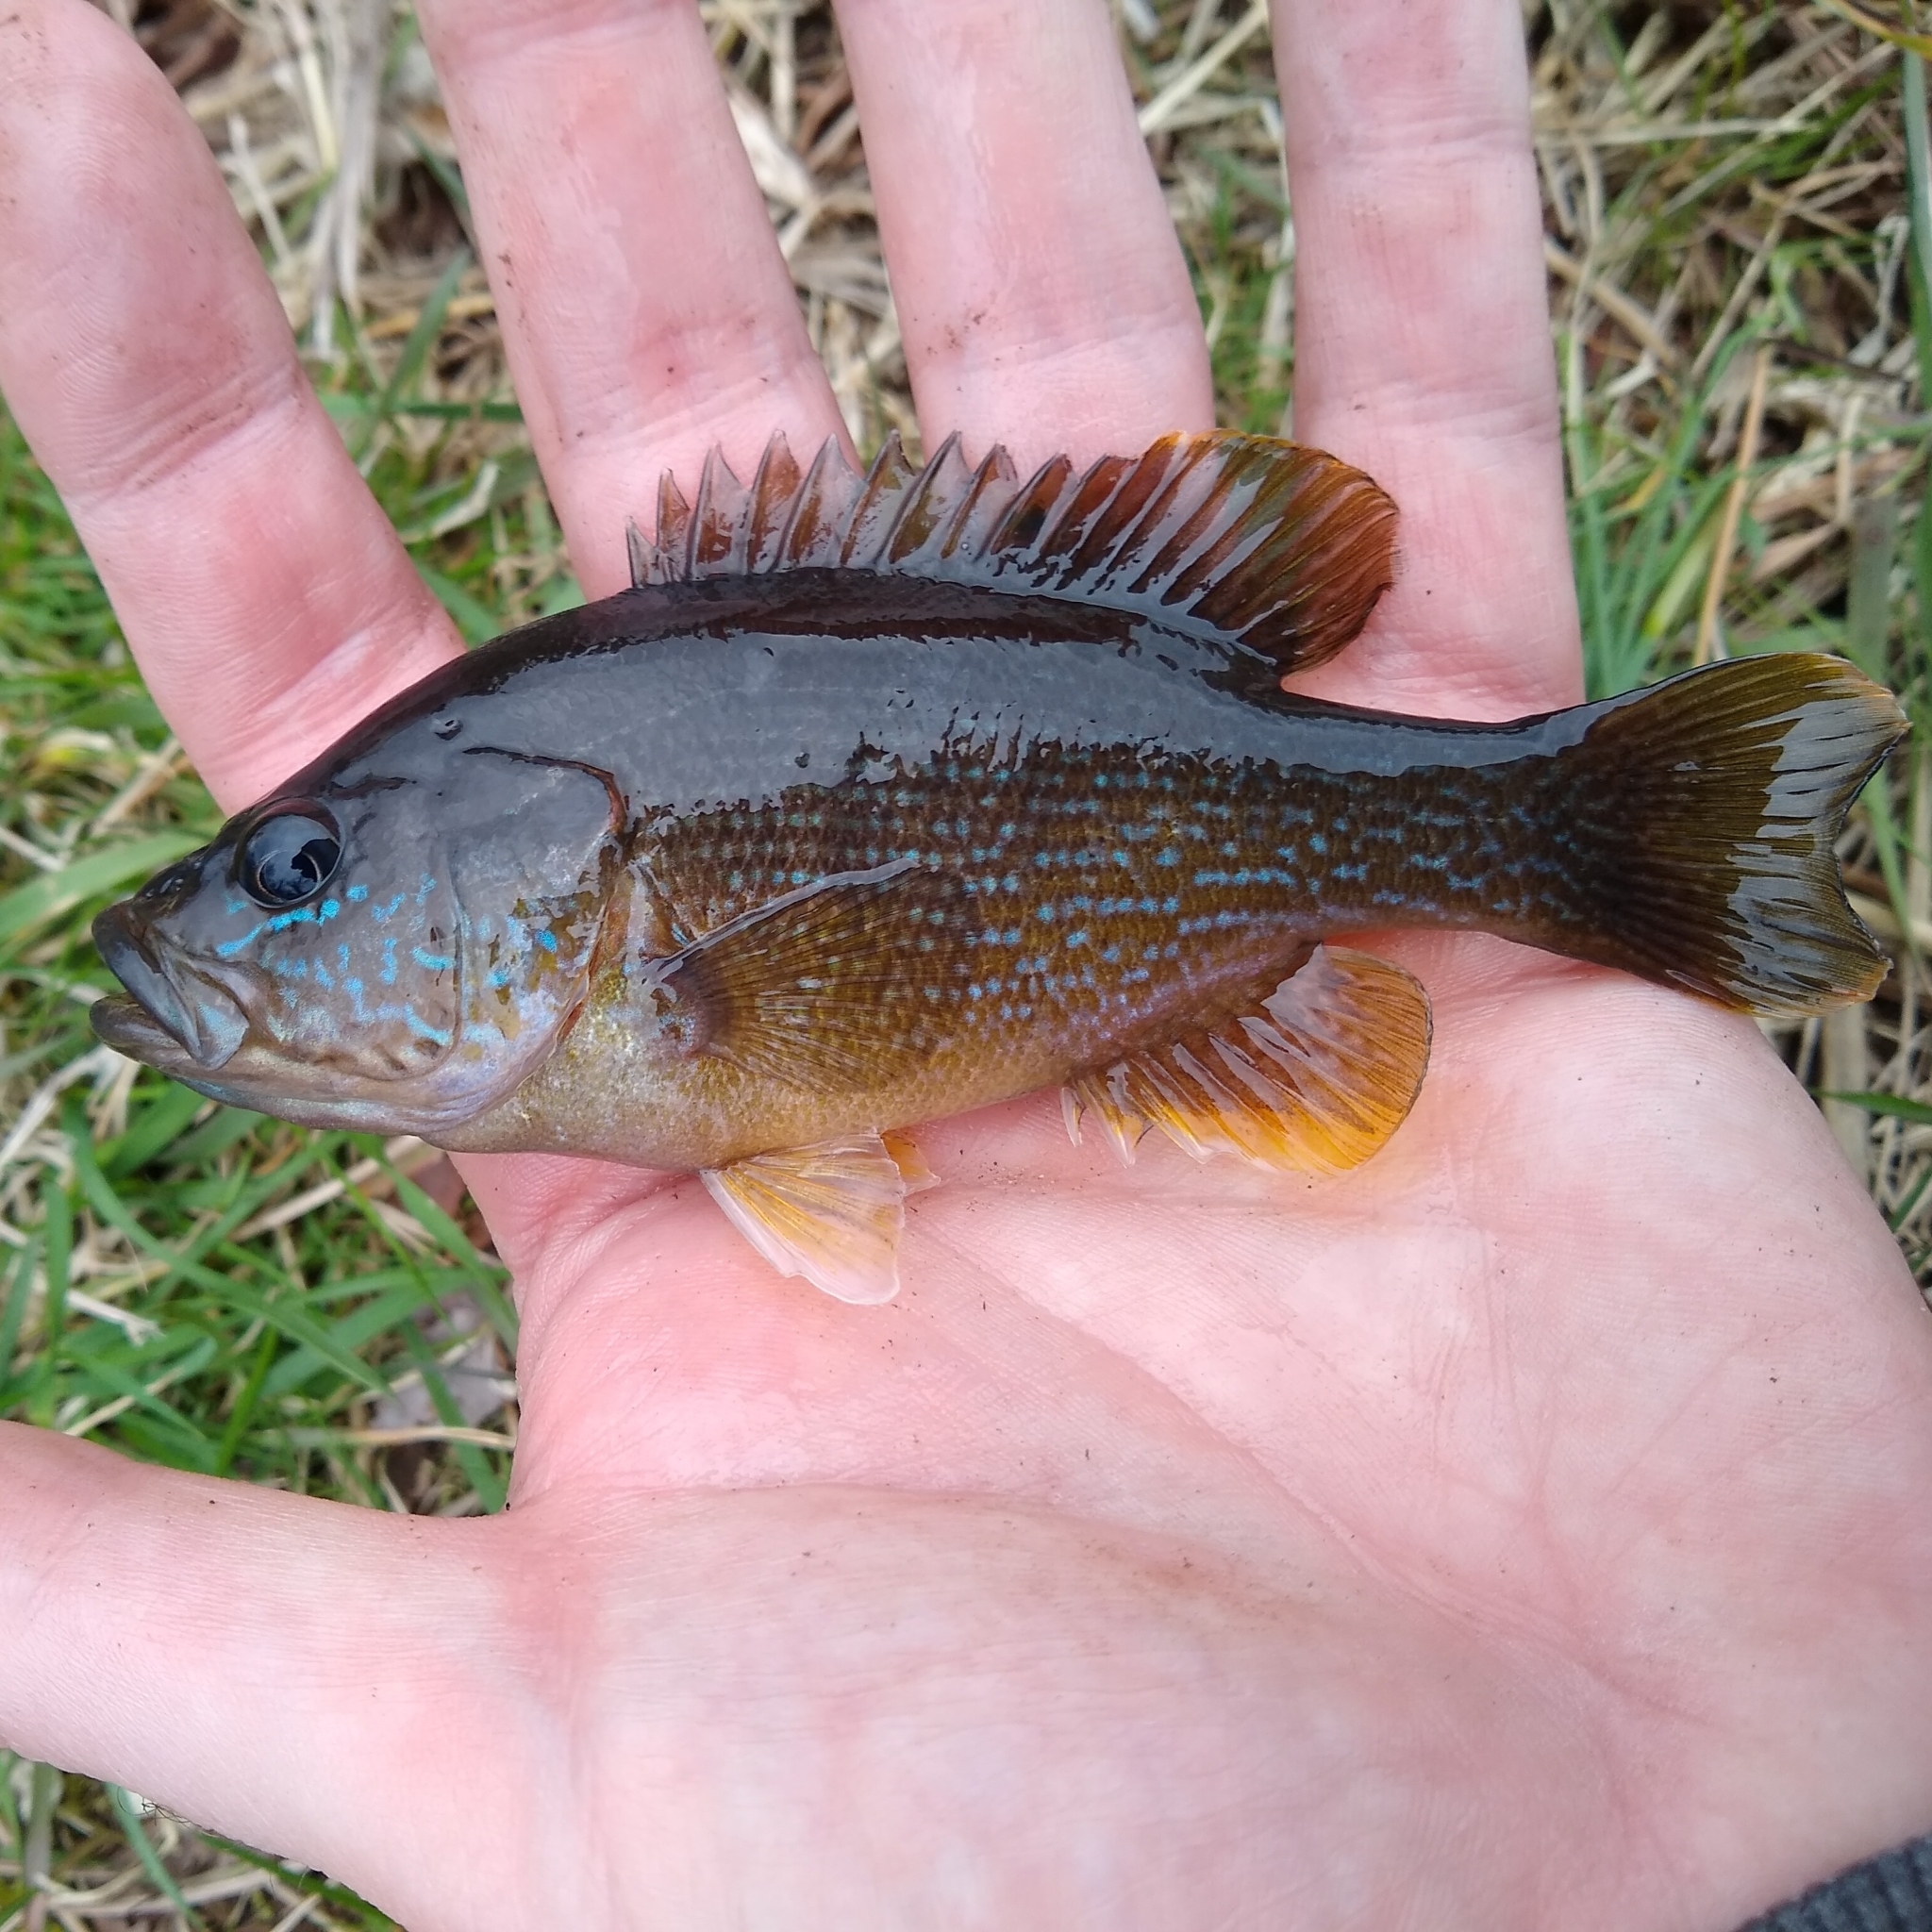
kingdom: Animalia
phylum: Chordata
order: Perciformes
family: Centrarchidae
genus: Lepomis
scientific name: Lepomis cyanellus
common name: Green sunfish
